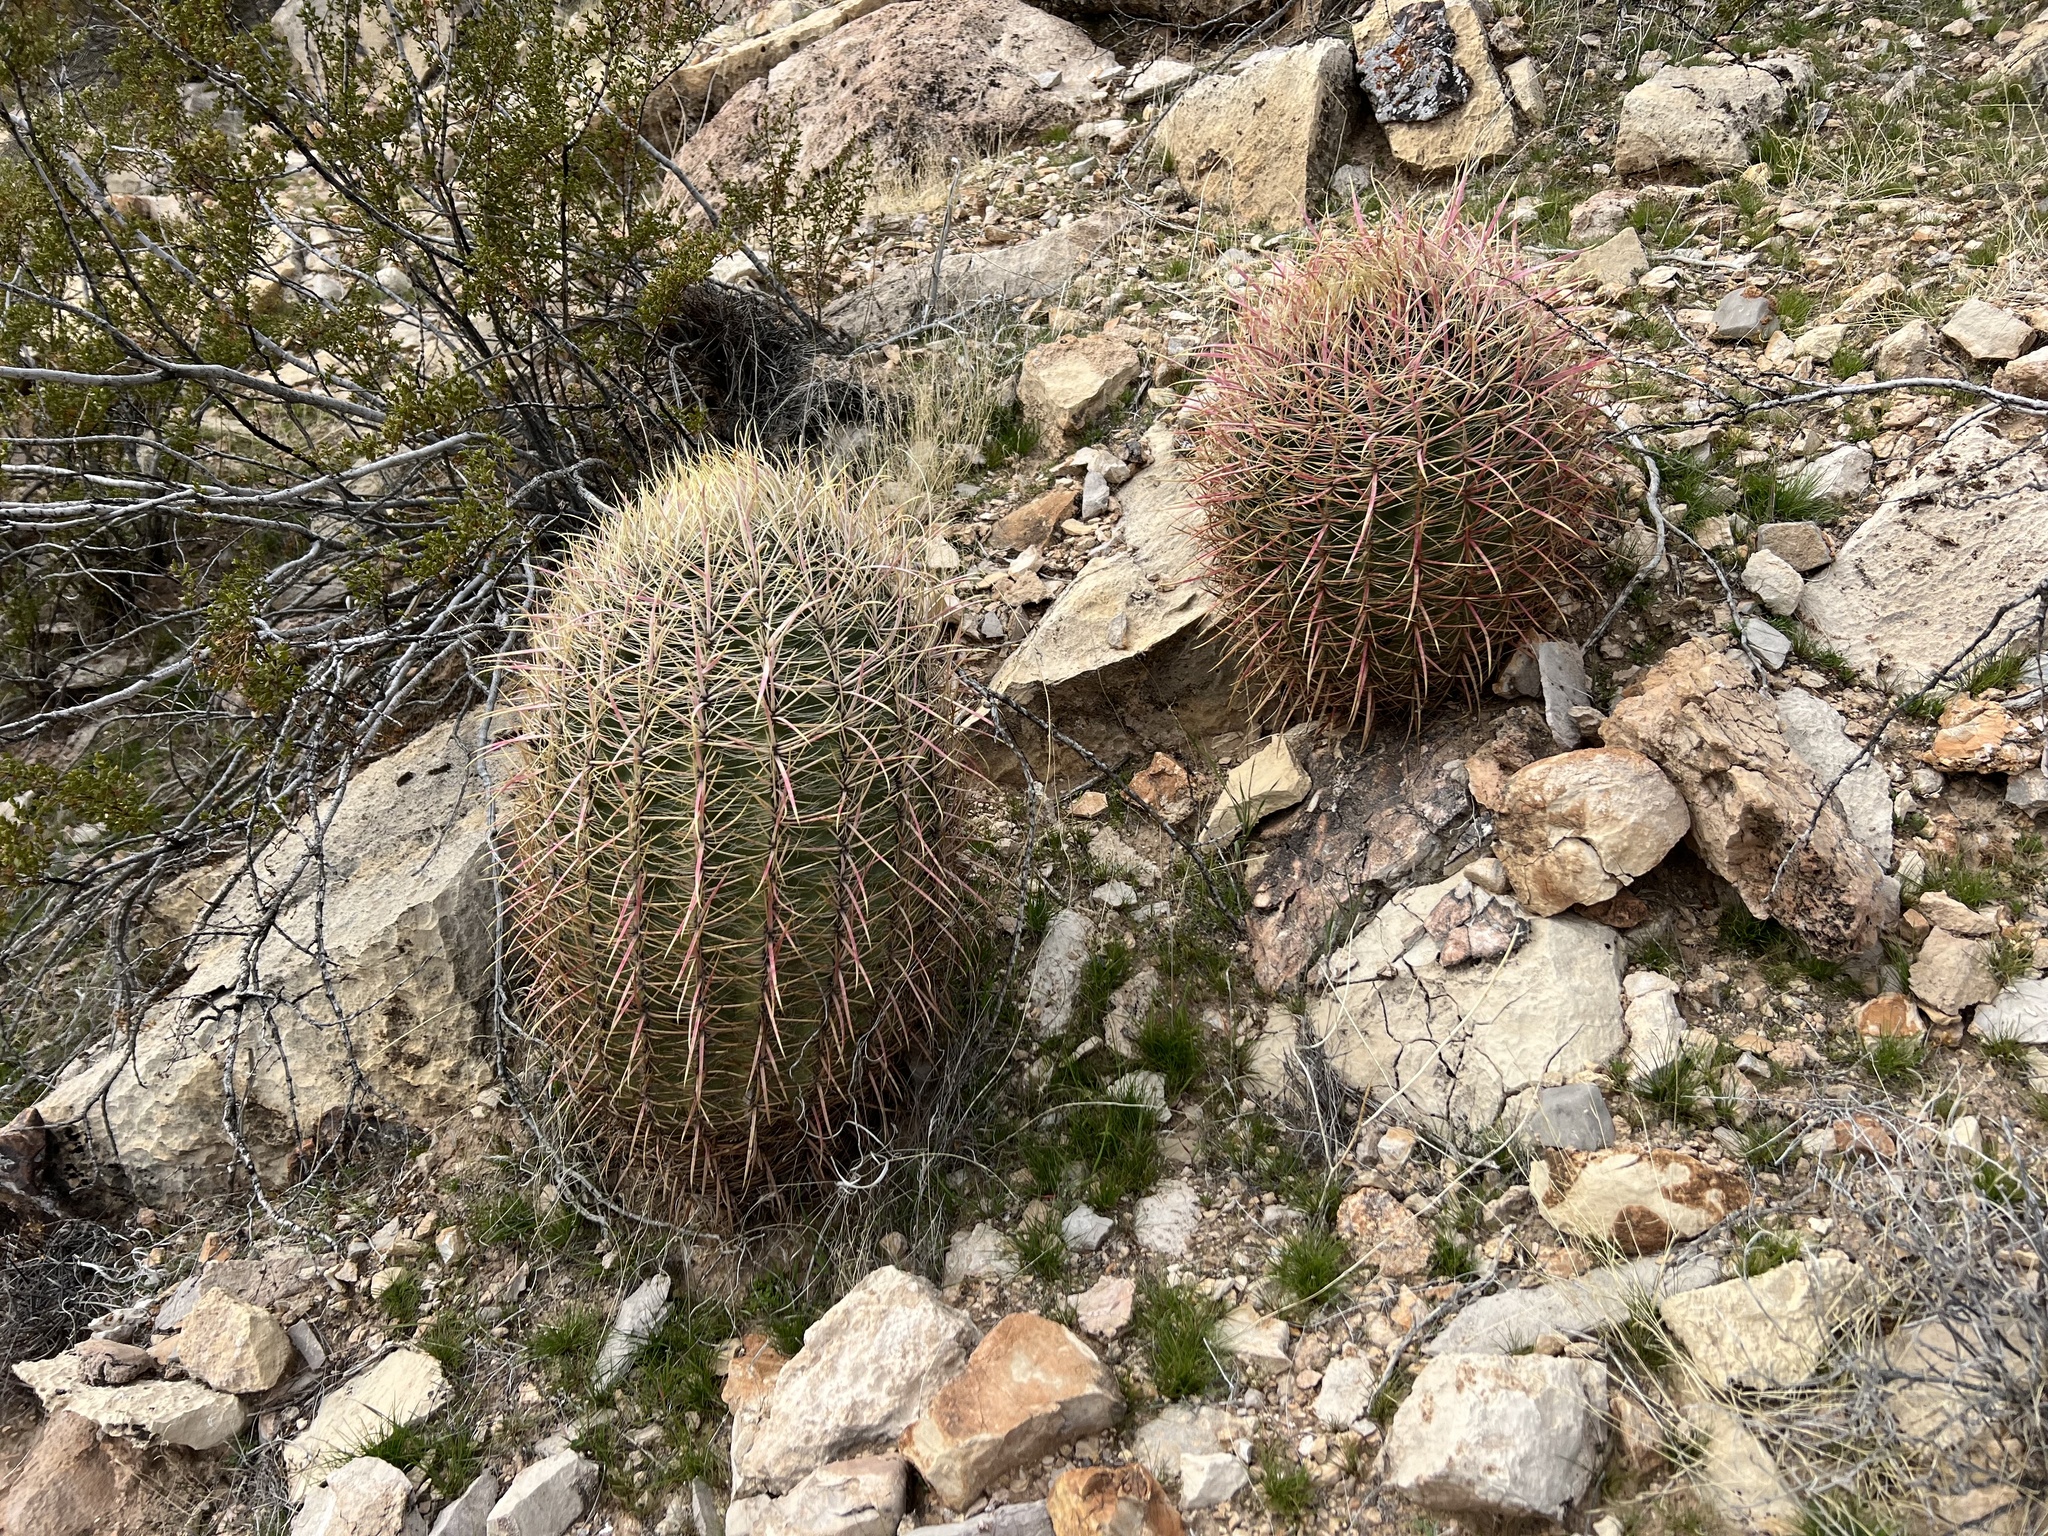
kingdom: Plantae
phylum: Tracheophyta
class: Magnoliopsida
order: Caryophyllales
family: Cactaceae
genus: Ferocactus
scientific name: Ferocactus cylindraceus
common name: California barrel cactus
